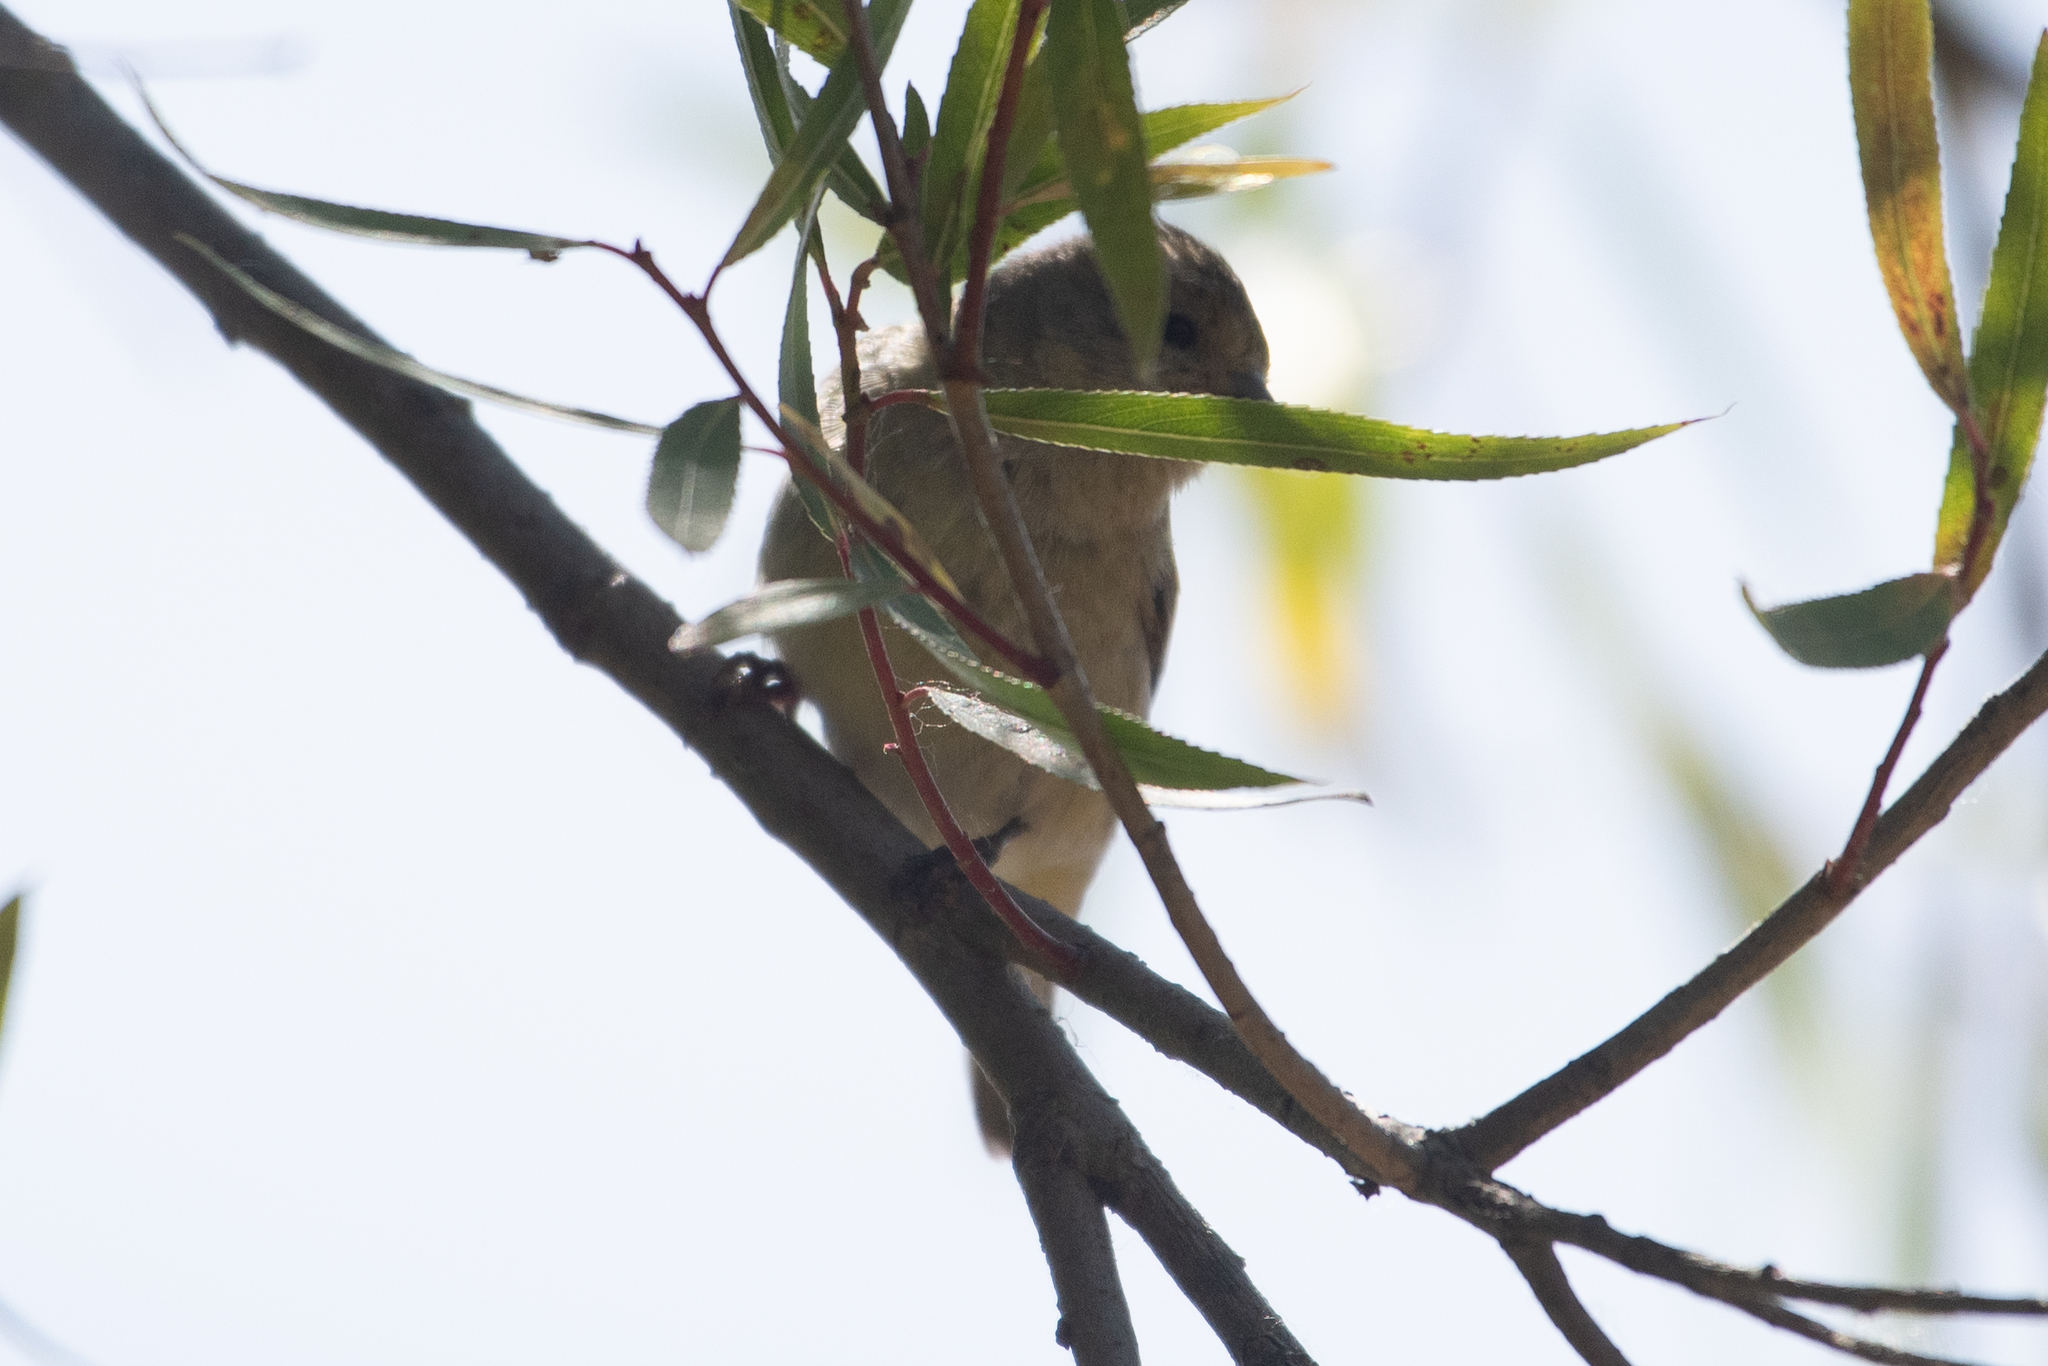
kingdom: Animalia
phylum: Chordata
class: Aves
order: Passeriformes
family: Fringillidae
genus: Spinus
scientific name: Spinus psaltria
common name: Lesser goldfinch
